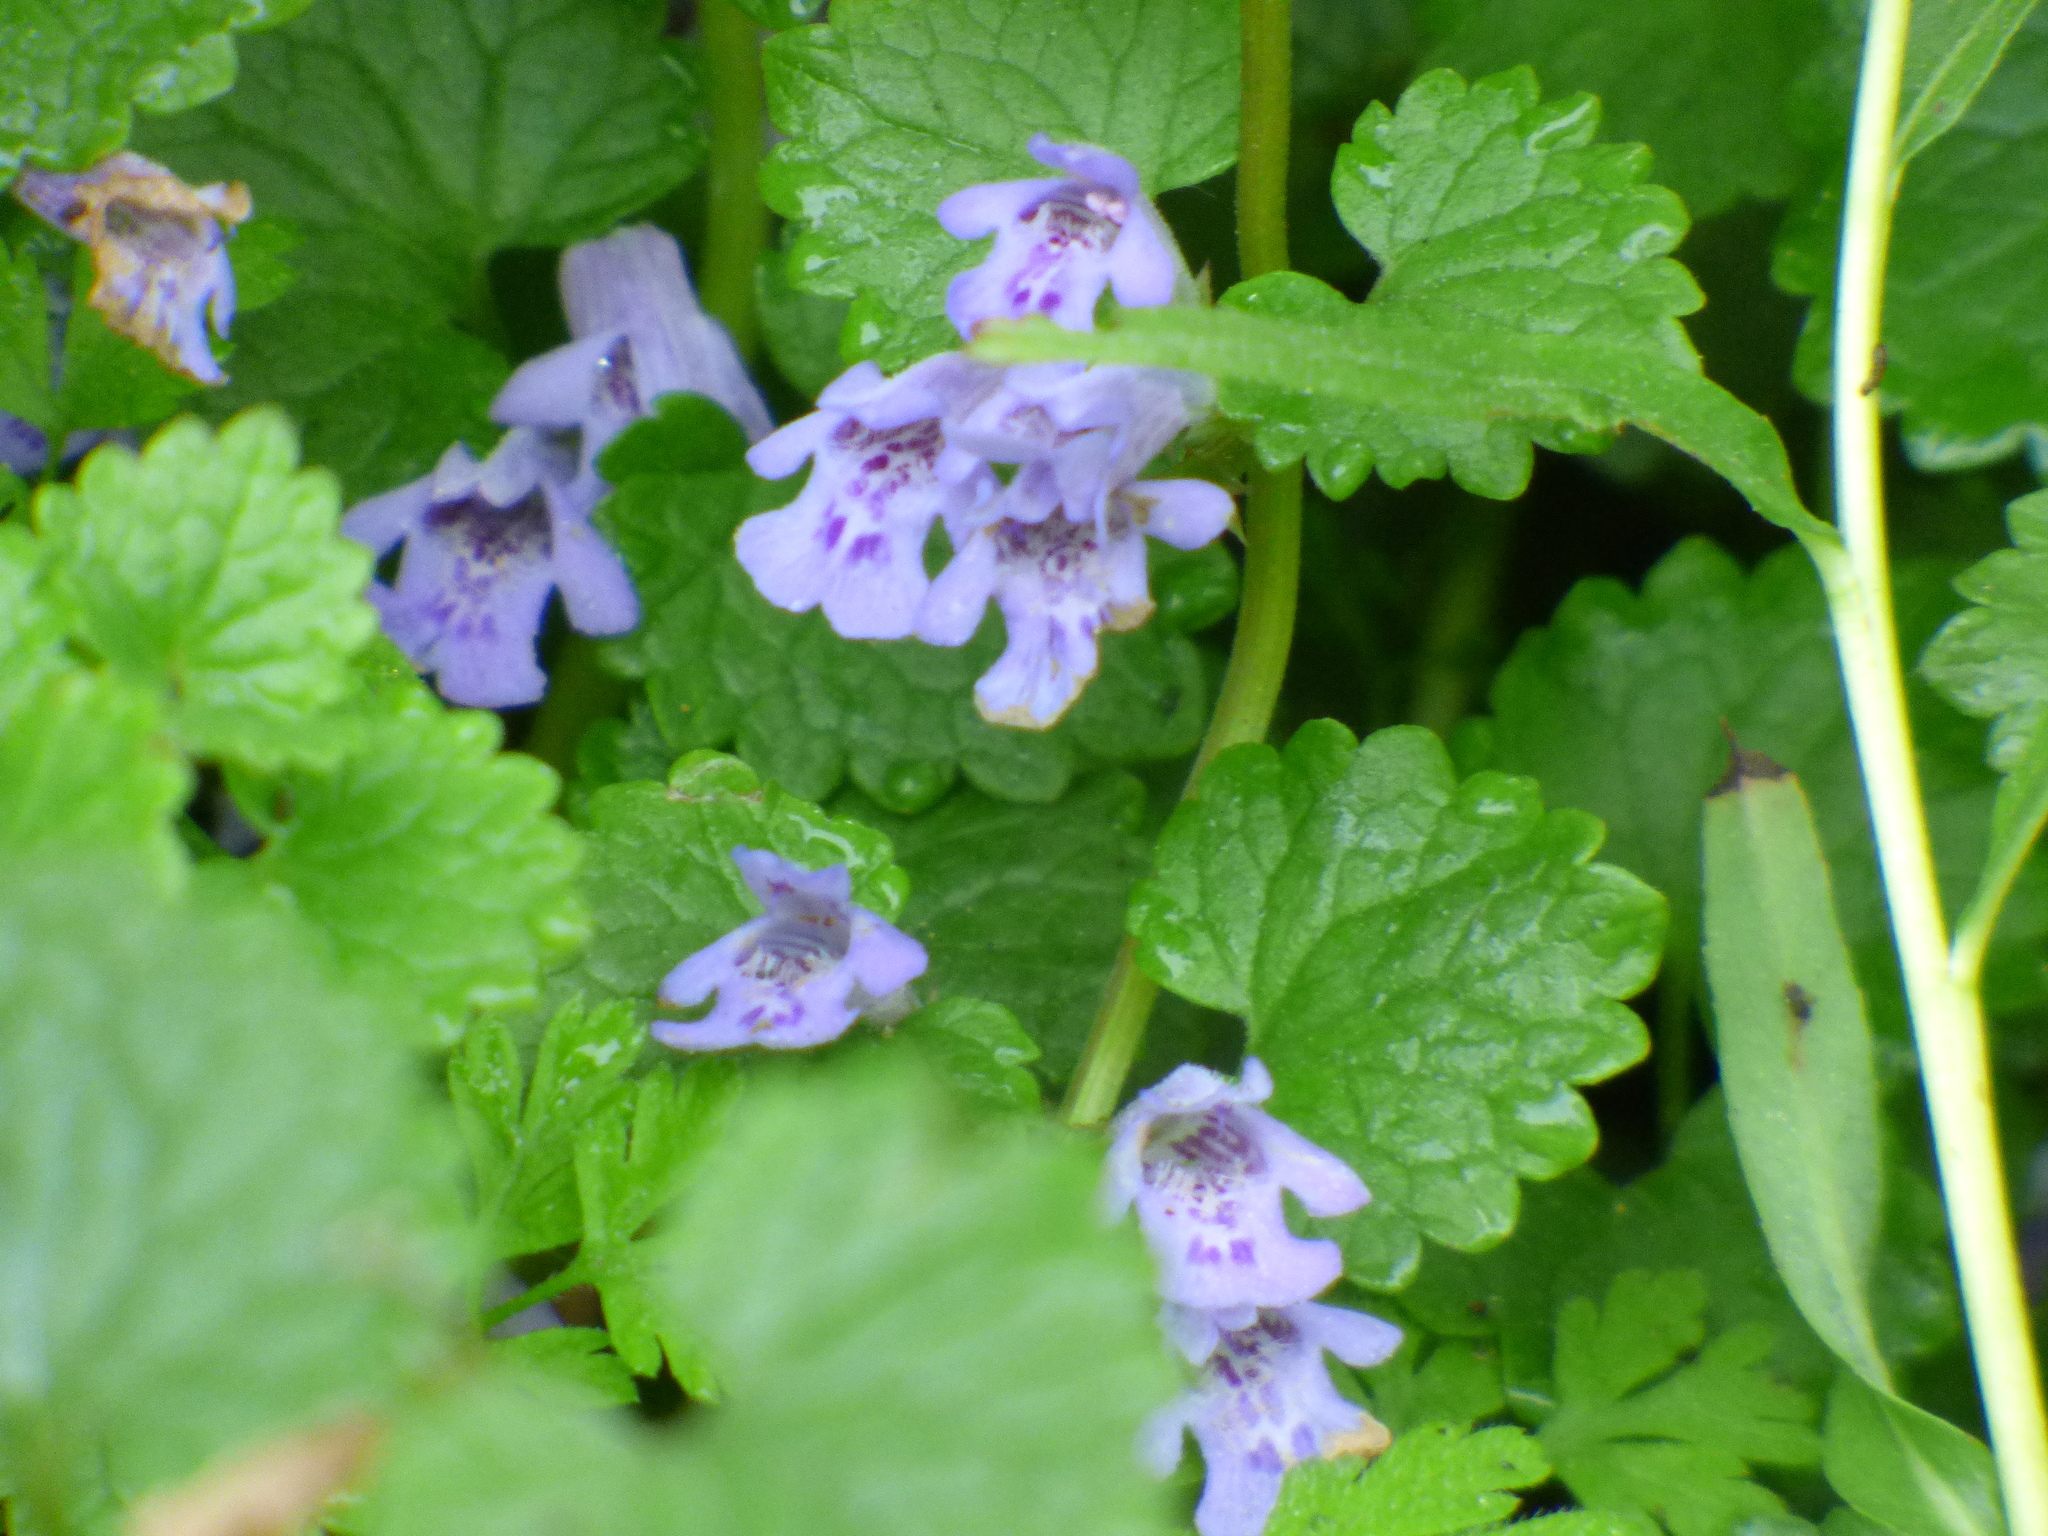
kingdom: Plantae
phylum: Tracheophyta
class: Magnoliopsida
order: Lamiales
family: Lamiaceae
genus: Glechoma
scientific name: Glechoma hederacea
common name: Ground ivy
